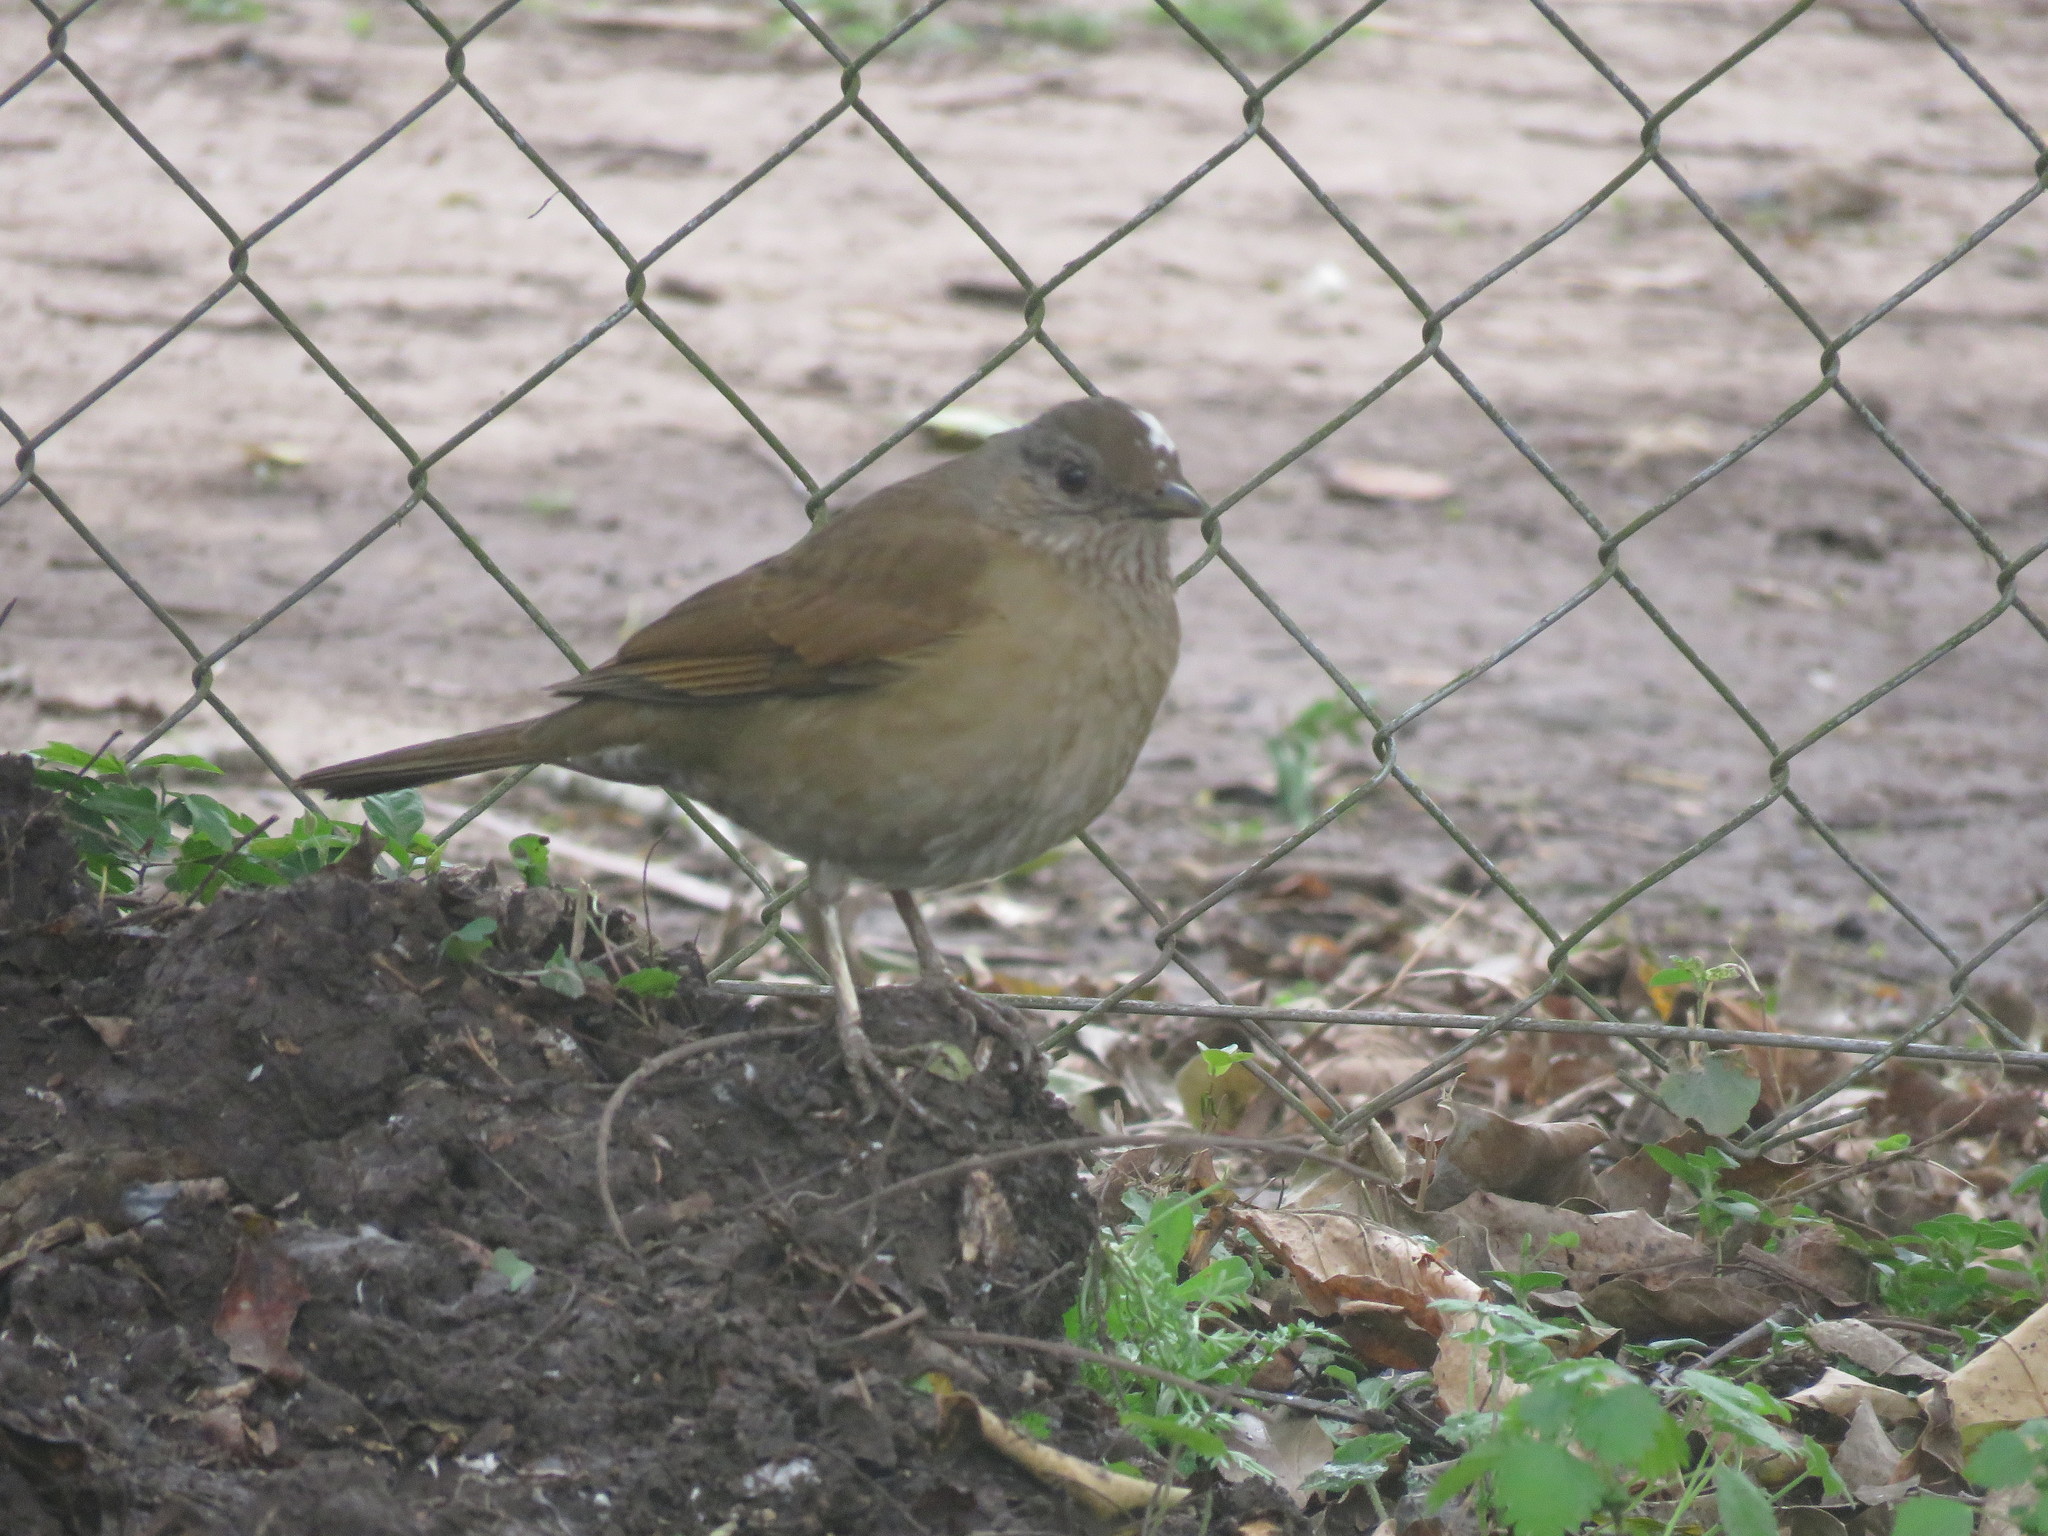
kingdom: Animalia
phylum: Chordata
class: Aves
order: Passeriformes
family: Turdidae
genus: Turdus
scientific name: Turdus leucomelas
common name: Pale-breasted thrush
